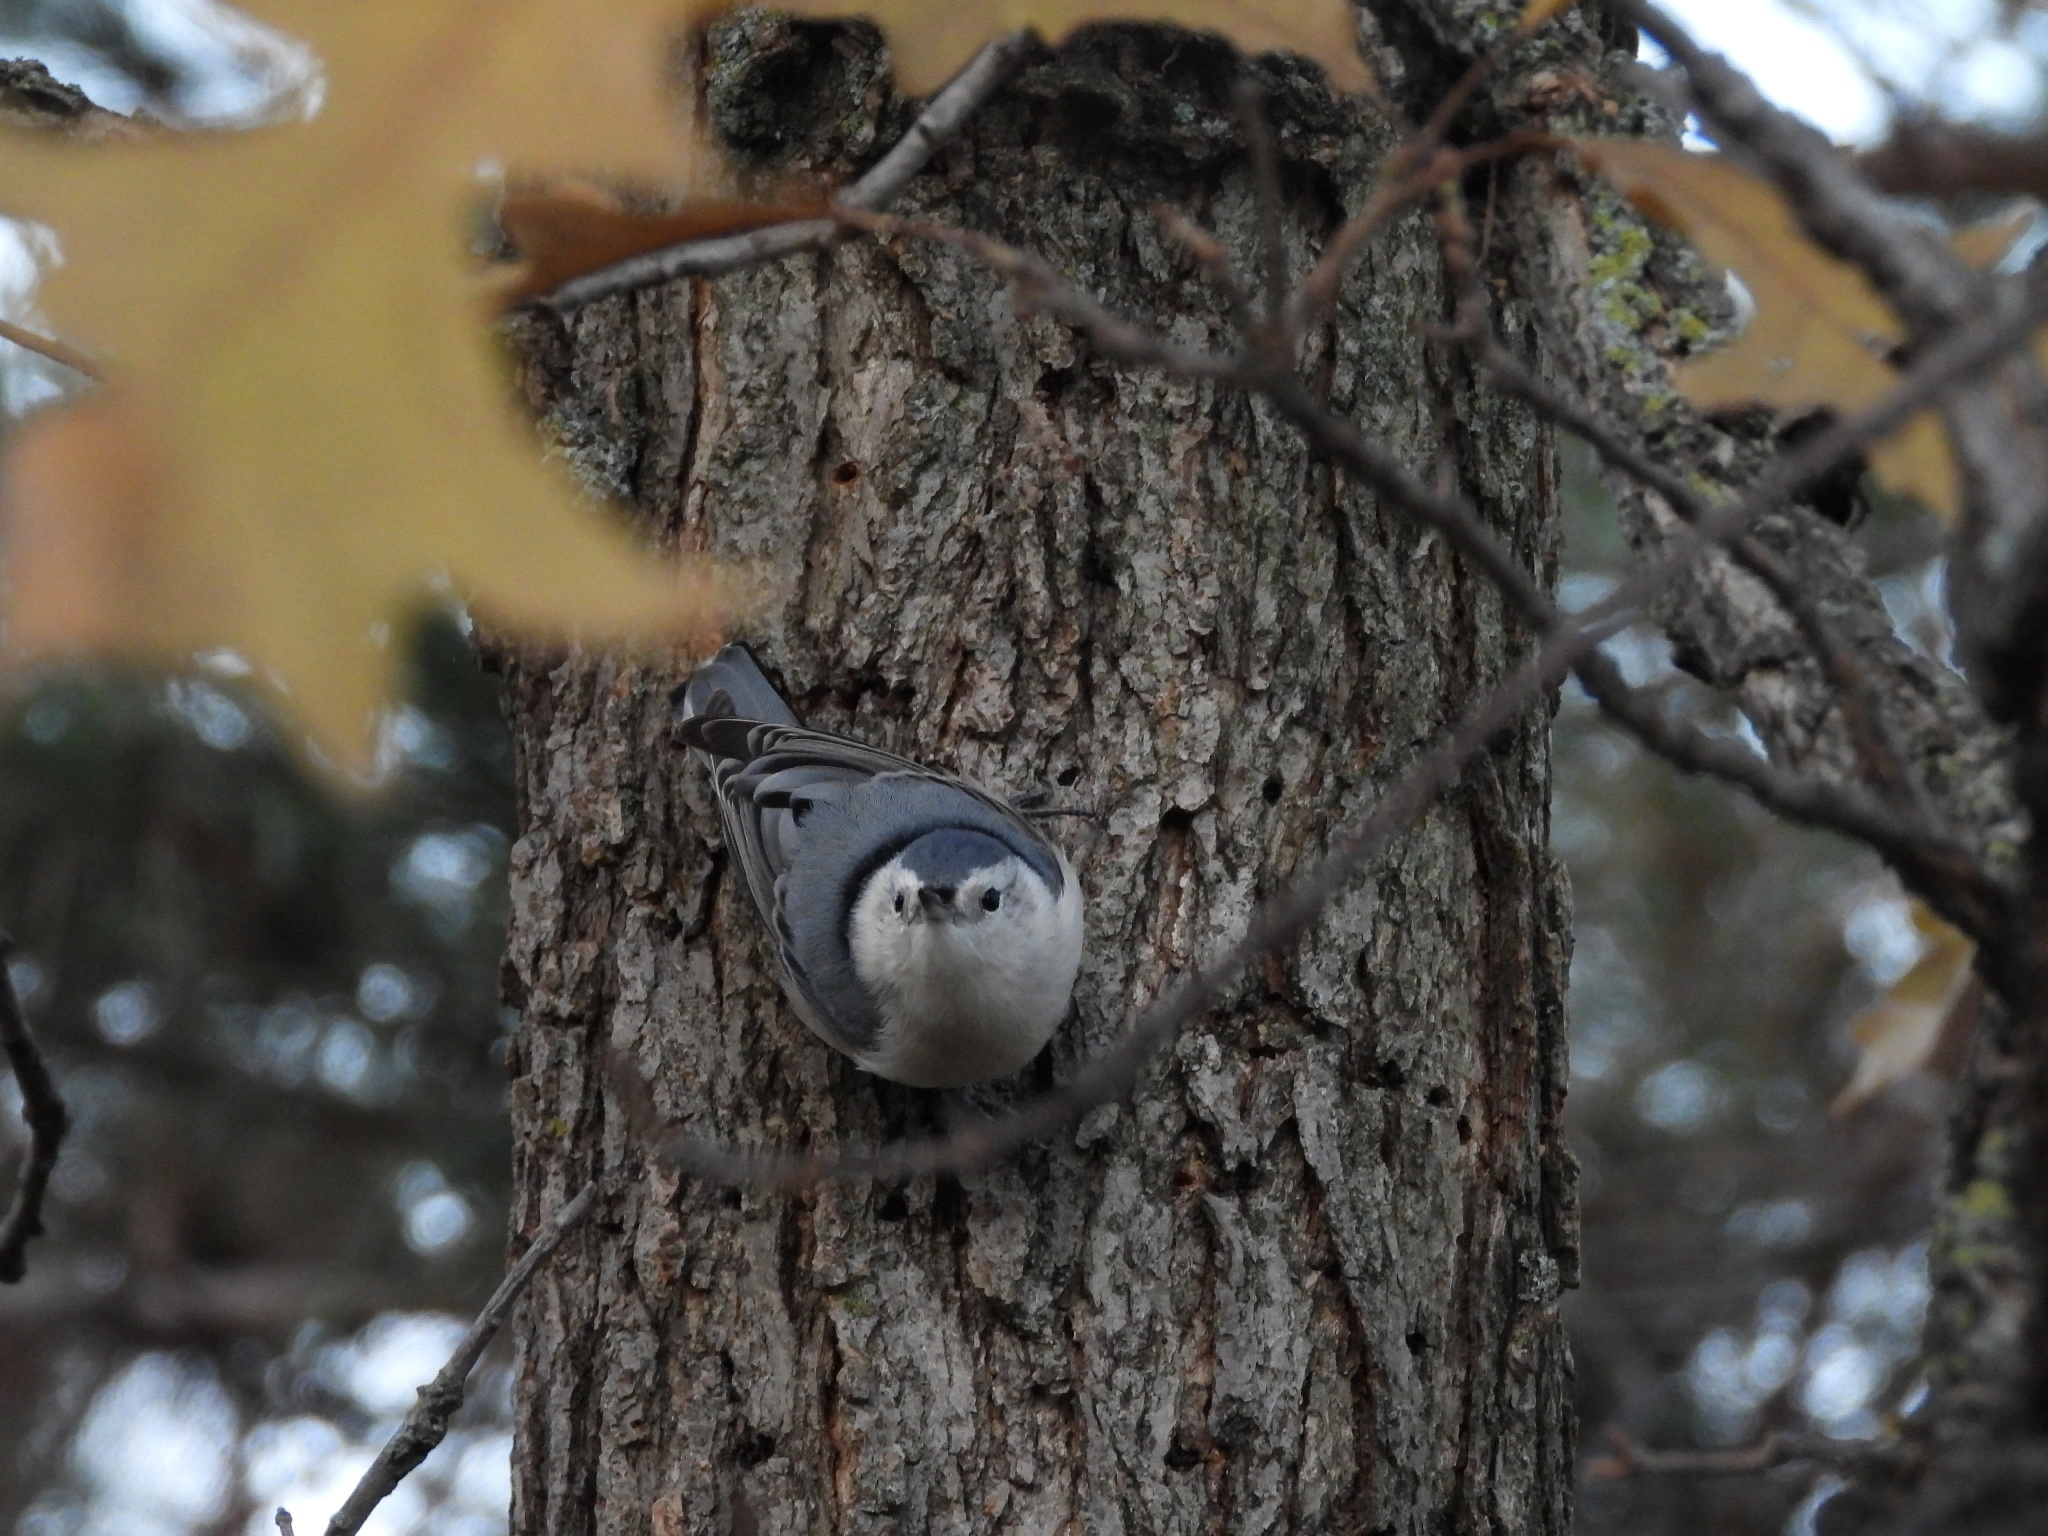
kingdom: Animalia
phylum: Chordata
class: Aves
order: Passeriformes
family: Sittidae
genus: Sitta
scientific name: Sitta carolinensis
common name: White-breasted nuthatch
